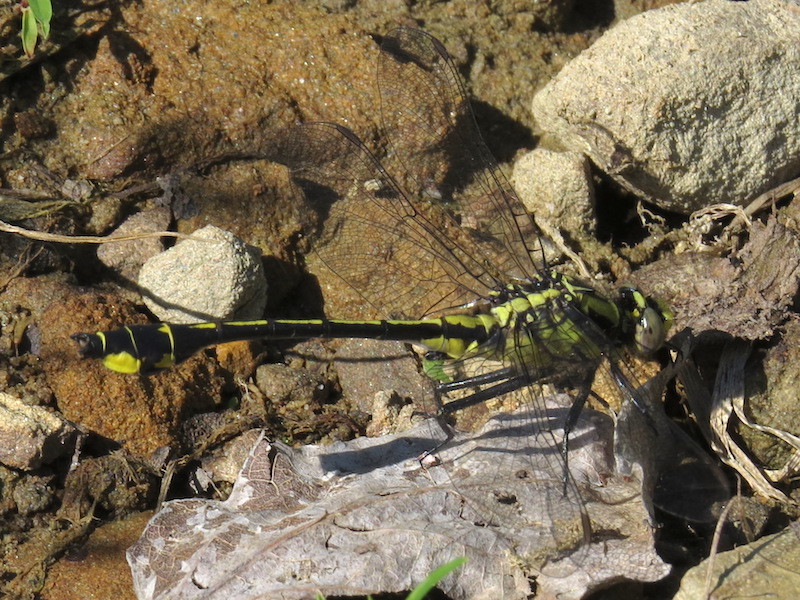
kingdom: Animalia
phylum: Arthropoda
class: Insecta
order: Odonata
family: Gomphidae
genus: Gomphurus
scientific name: Gomphurus fraternus
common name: Midland clubtail
